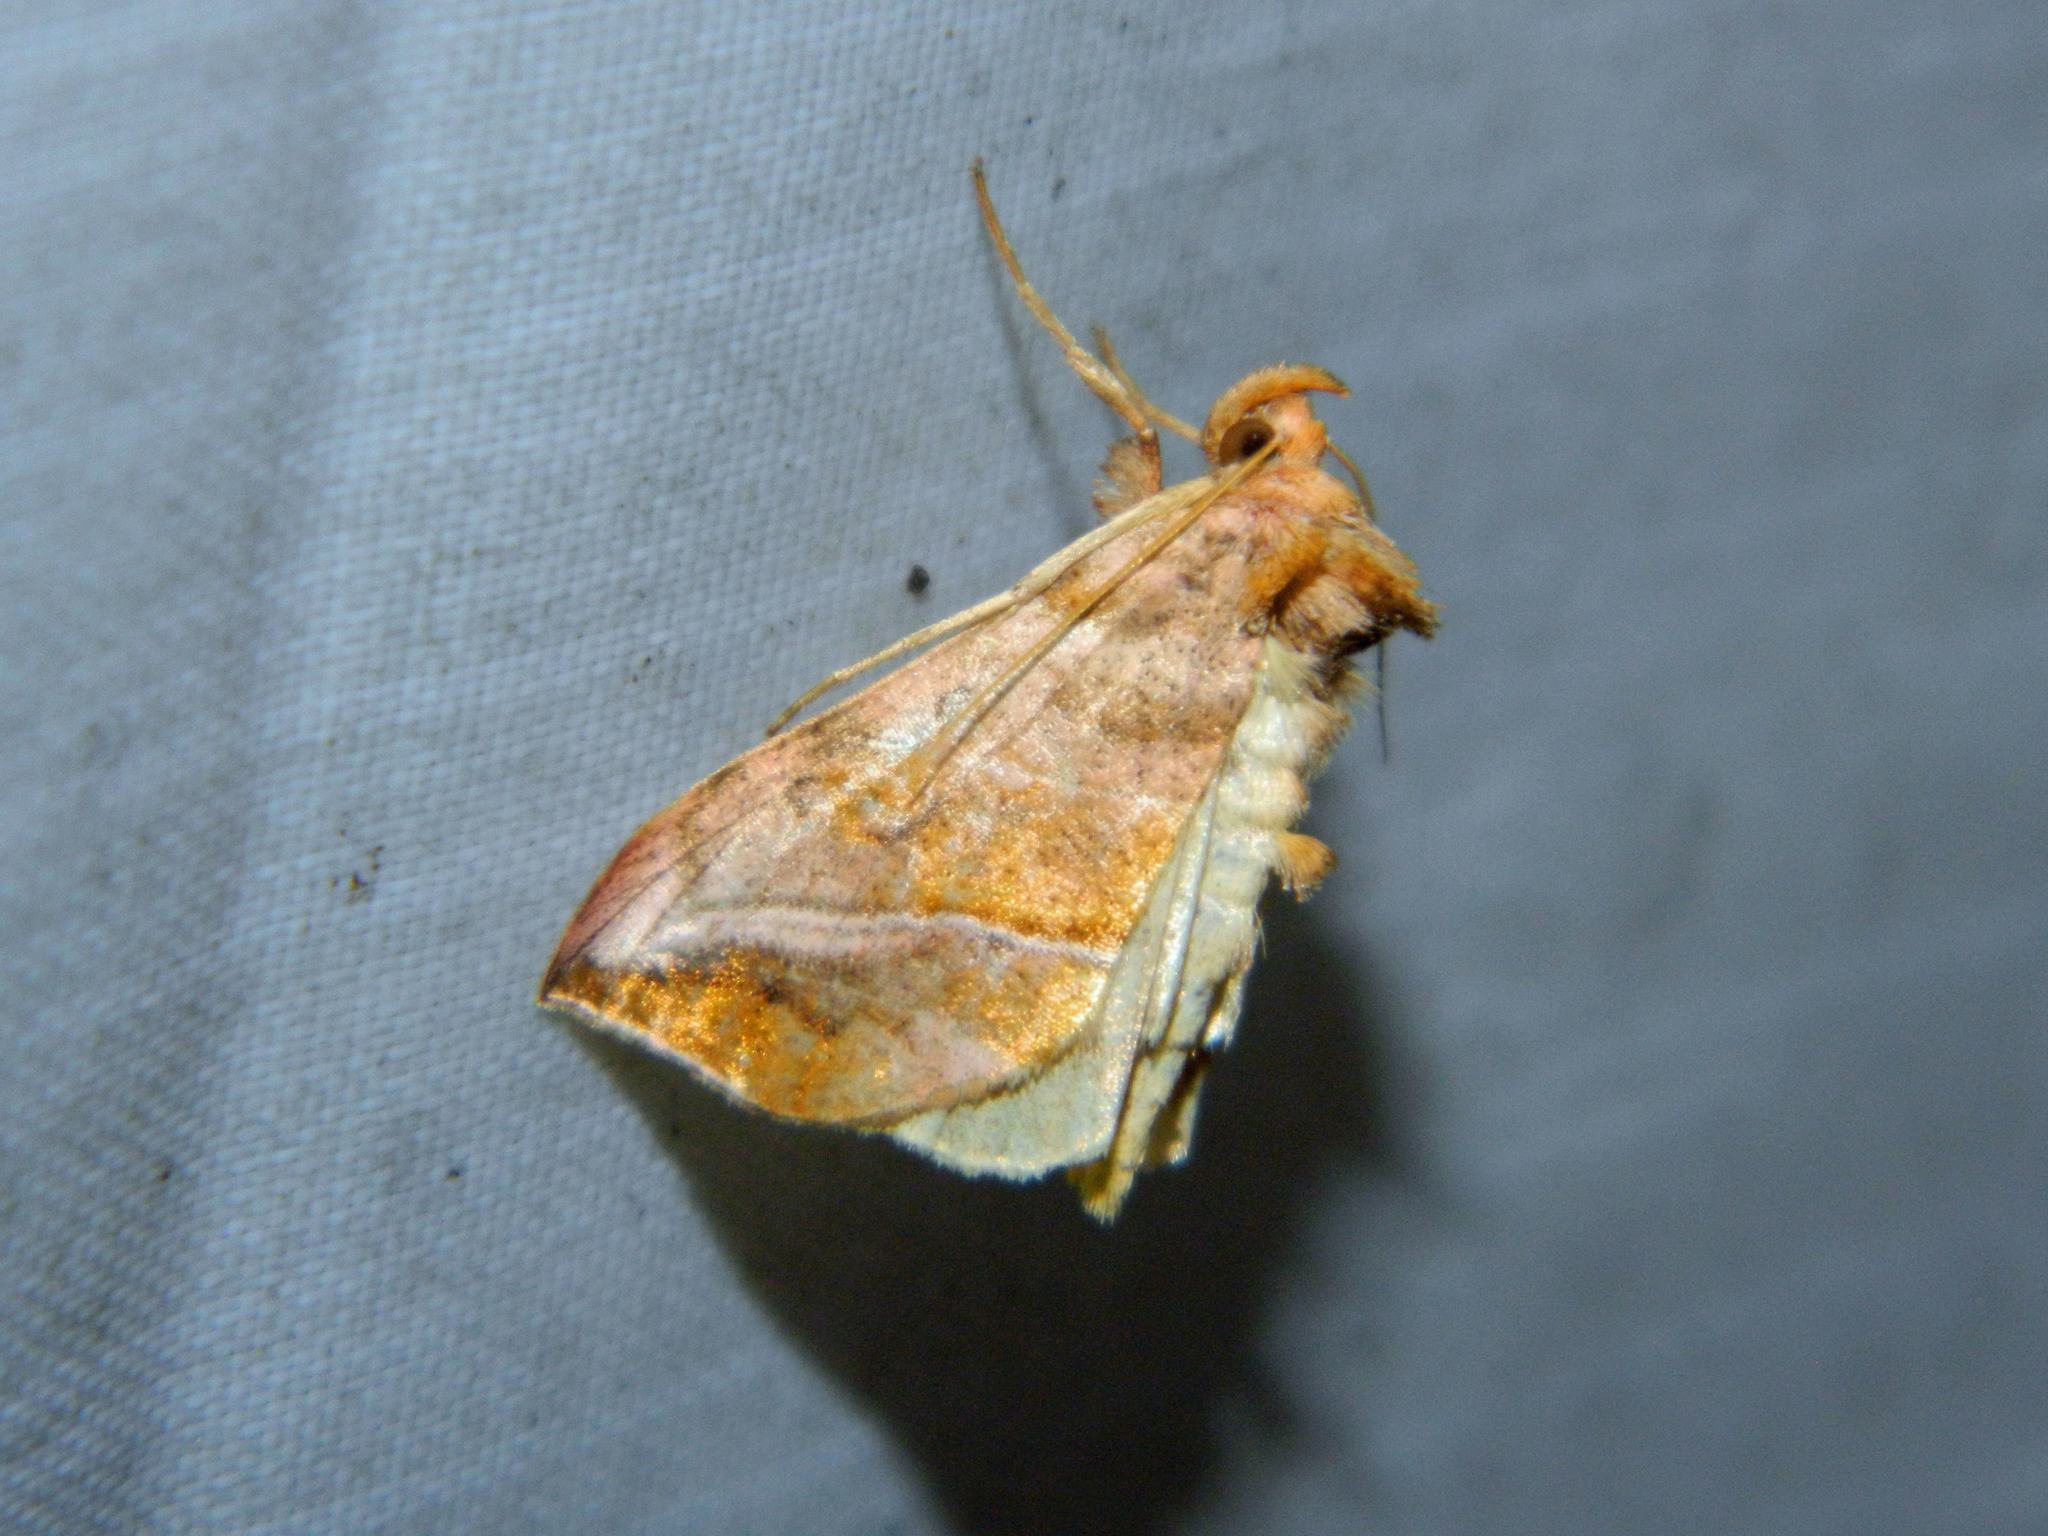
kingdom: Animalia
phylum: Arthropoda
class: Insecta
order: Lepidoptera
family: Noctuidae
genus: Pseudeva
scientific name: Pseudeva purpurigera
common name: Straight-lined looper moth
